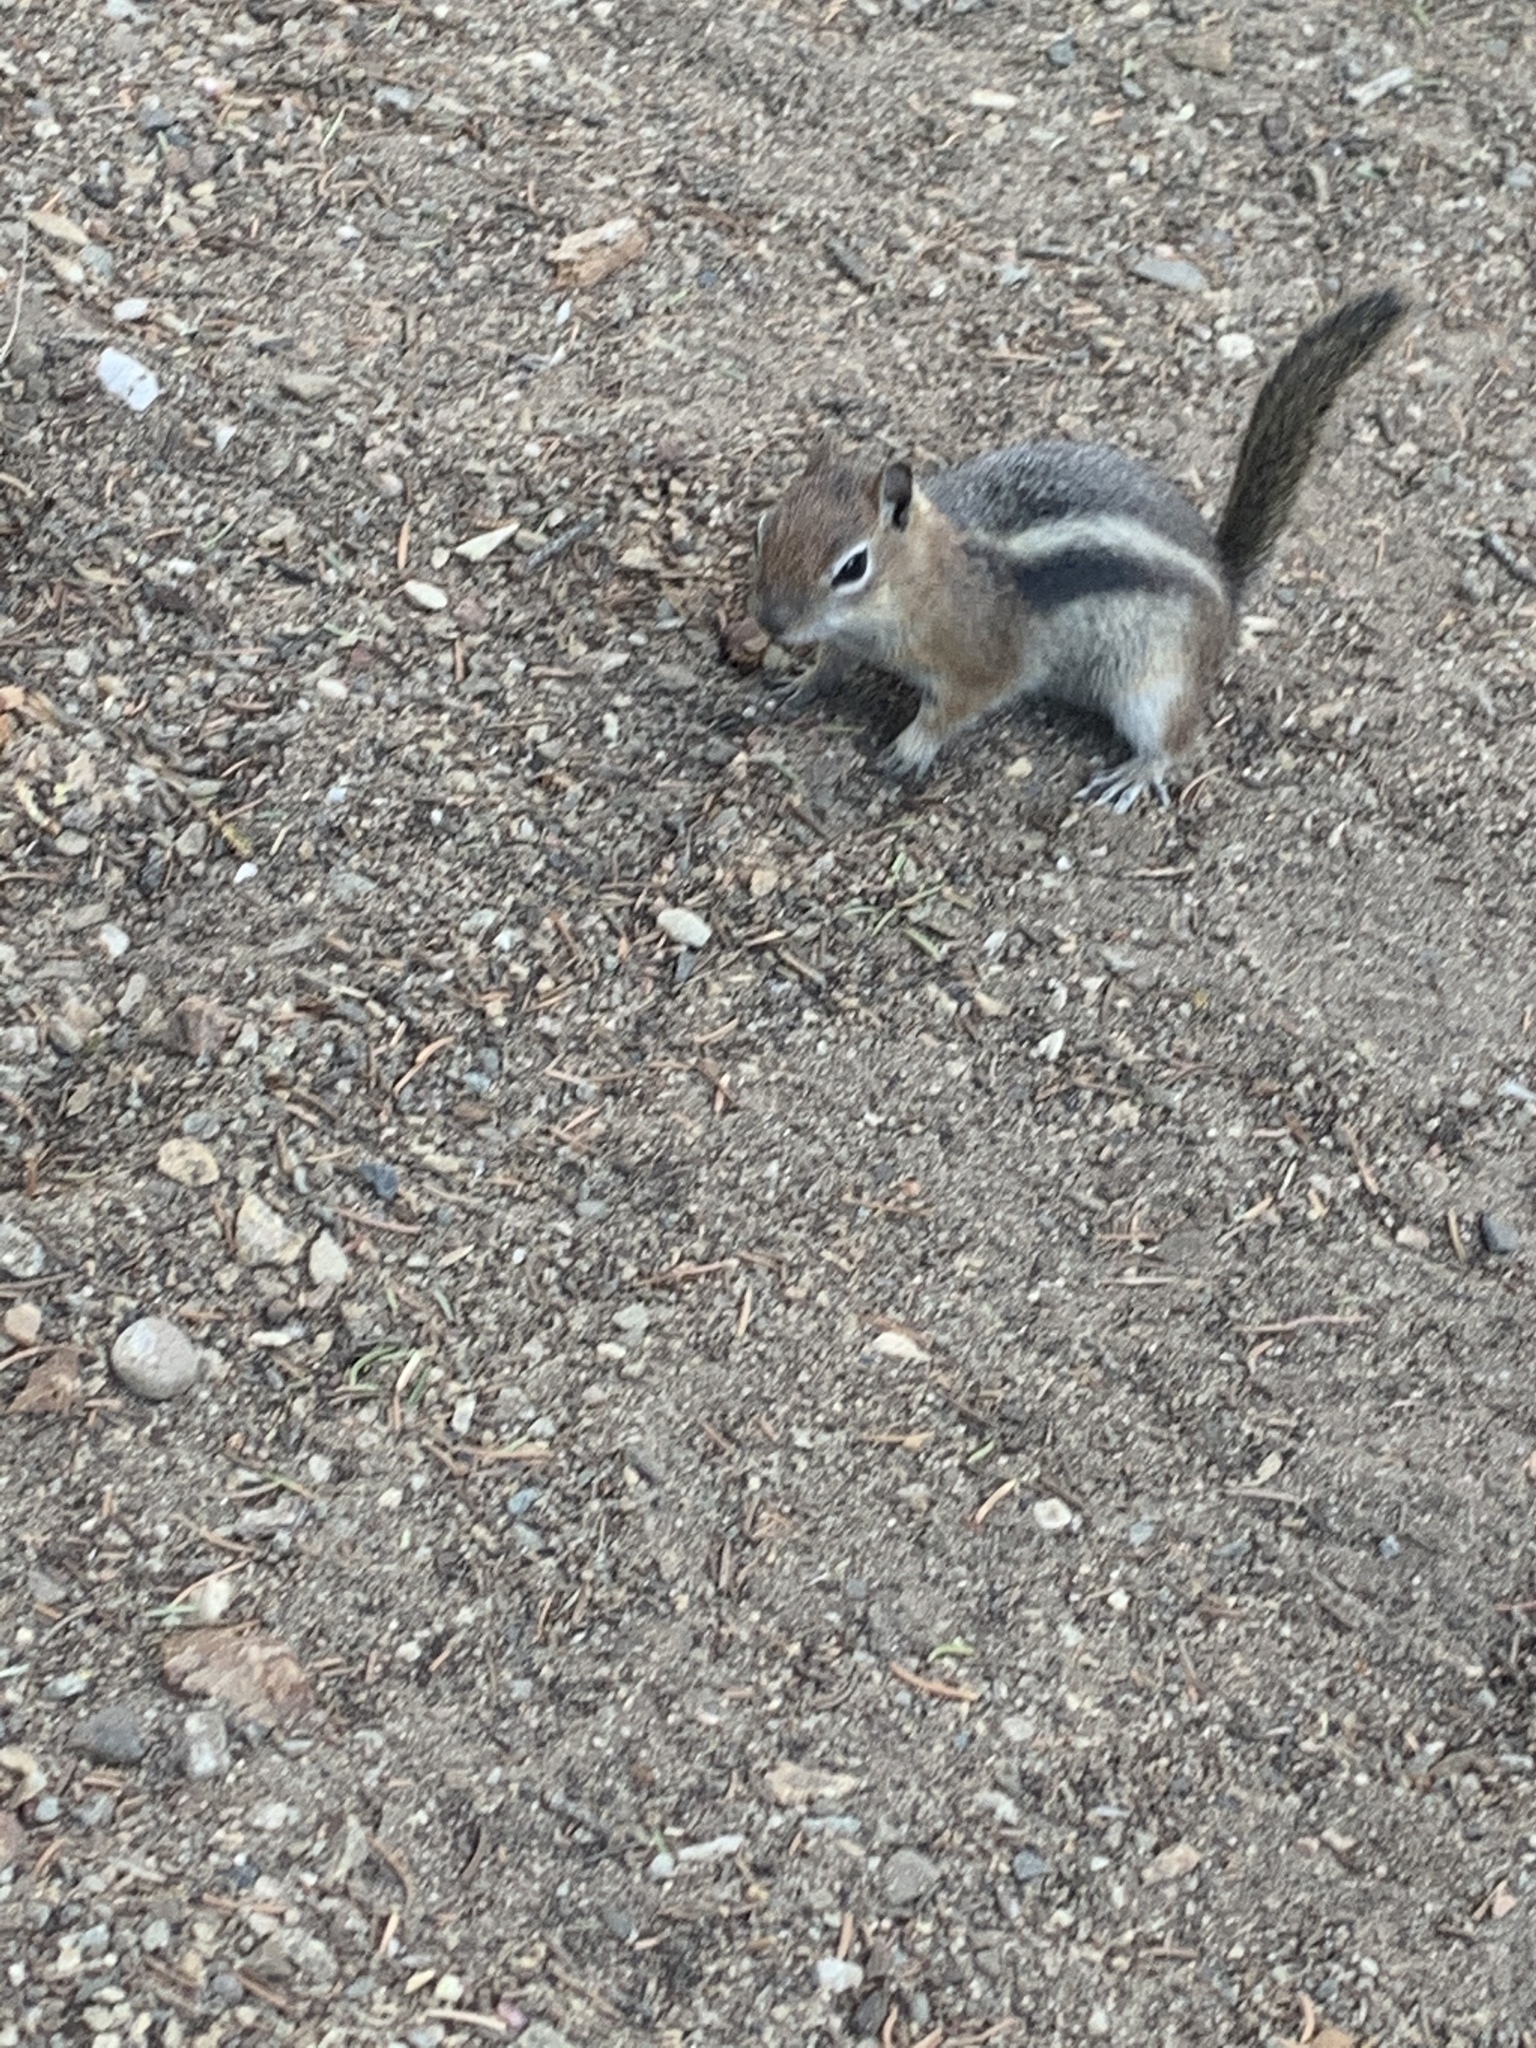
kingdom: Animalia
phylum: Chordata
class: Mammalia
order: Rodentia
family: Sciuridae
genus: Callospermophilus
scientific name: Callospermophilus lateralis
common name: Golden-mantled ground squirrel
